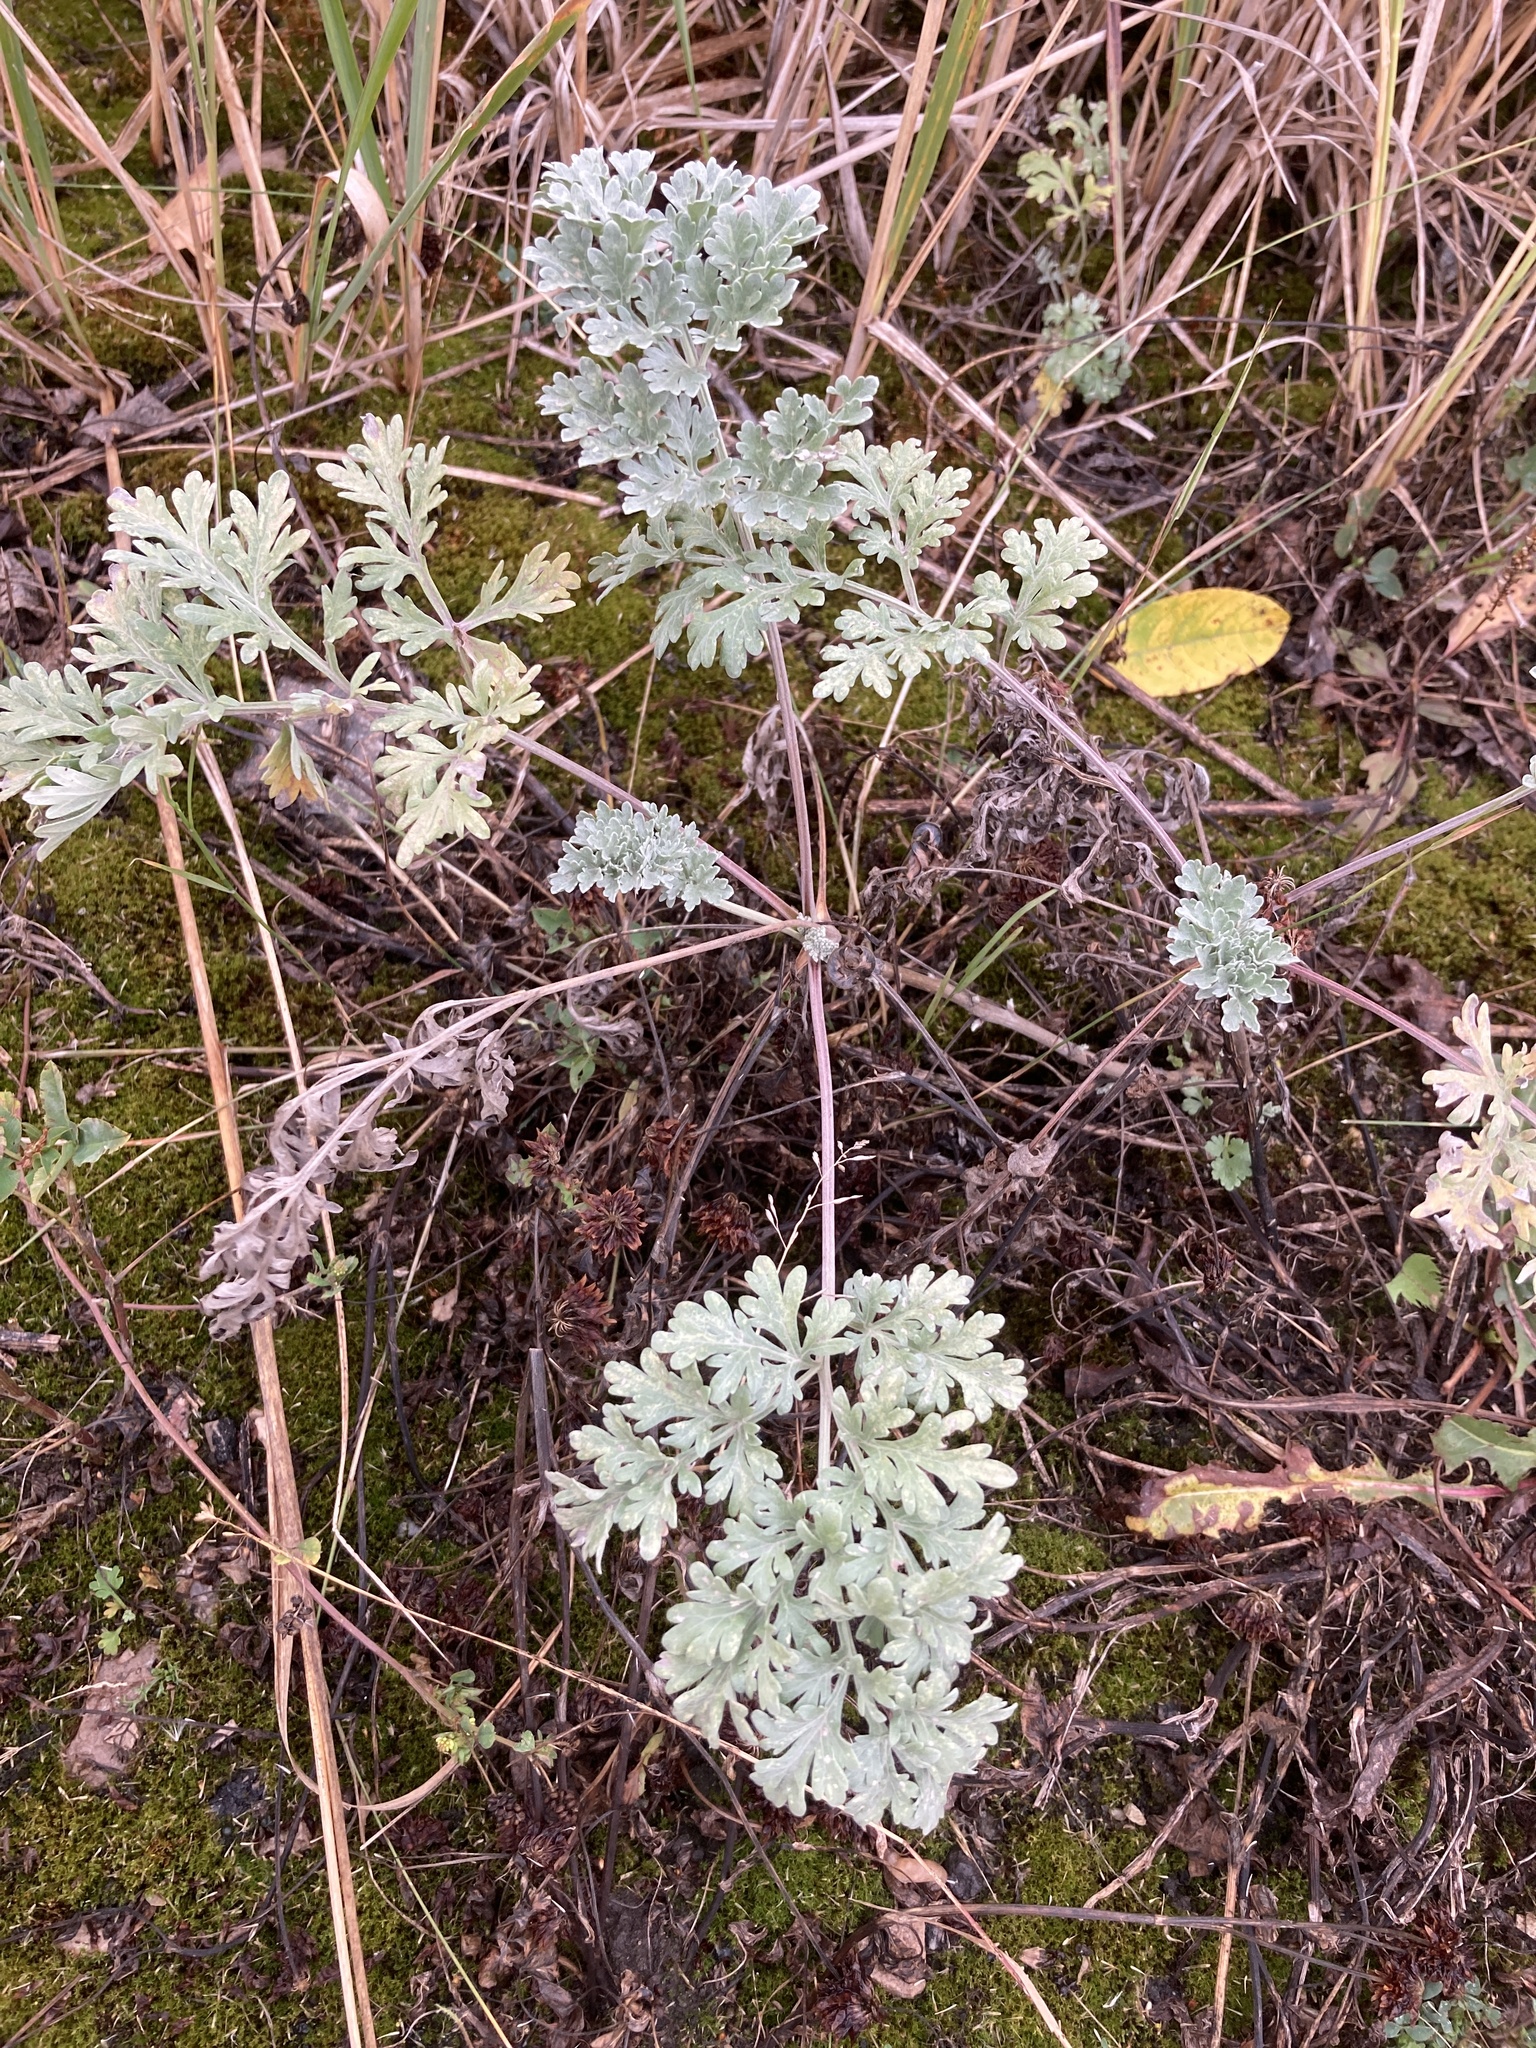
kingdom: Plantae
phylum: Tracheophyta
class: Magnoliopsida
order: Asterales
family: Asteraceae
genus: Artemisia
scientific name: Artemisia absinthium
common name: Wormwood
